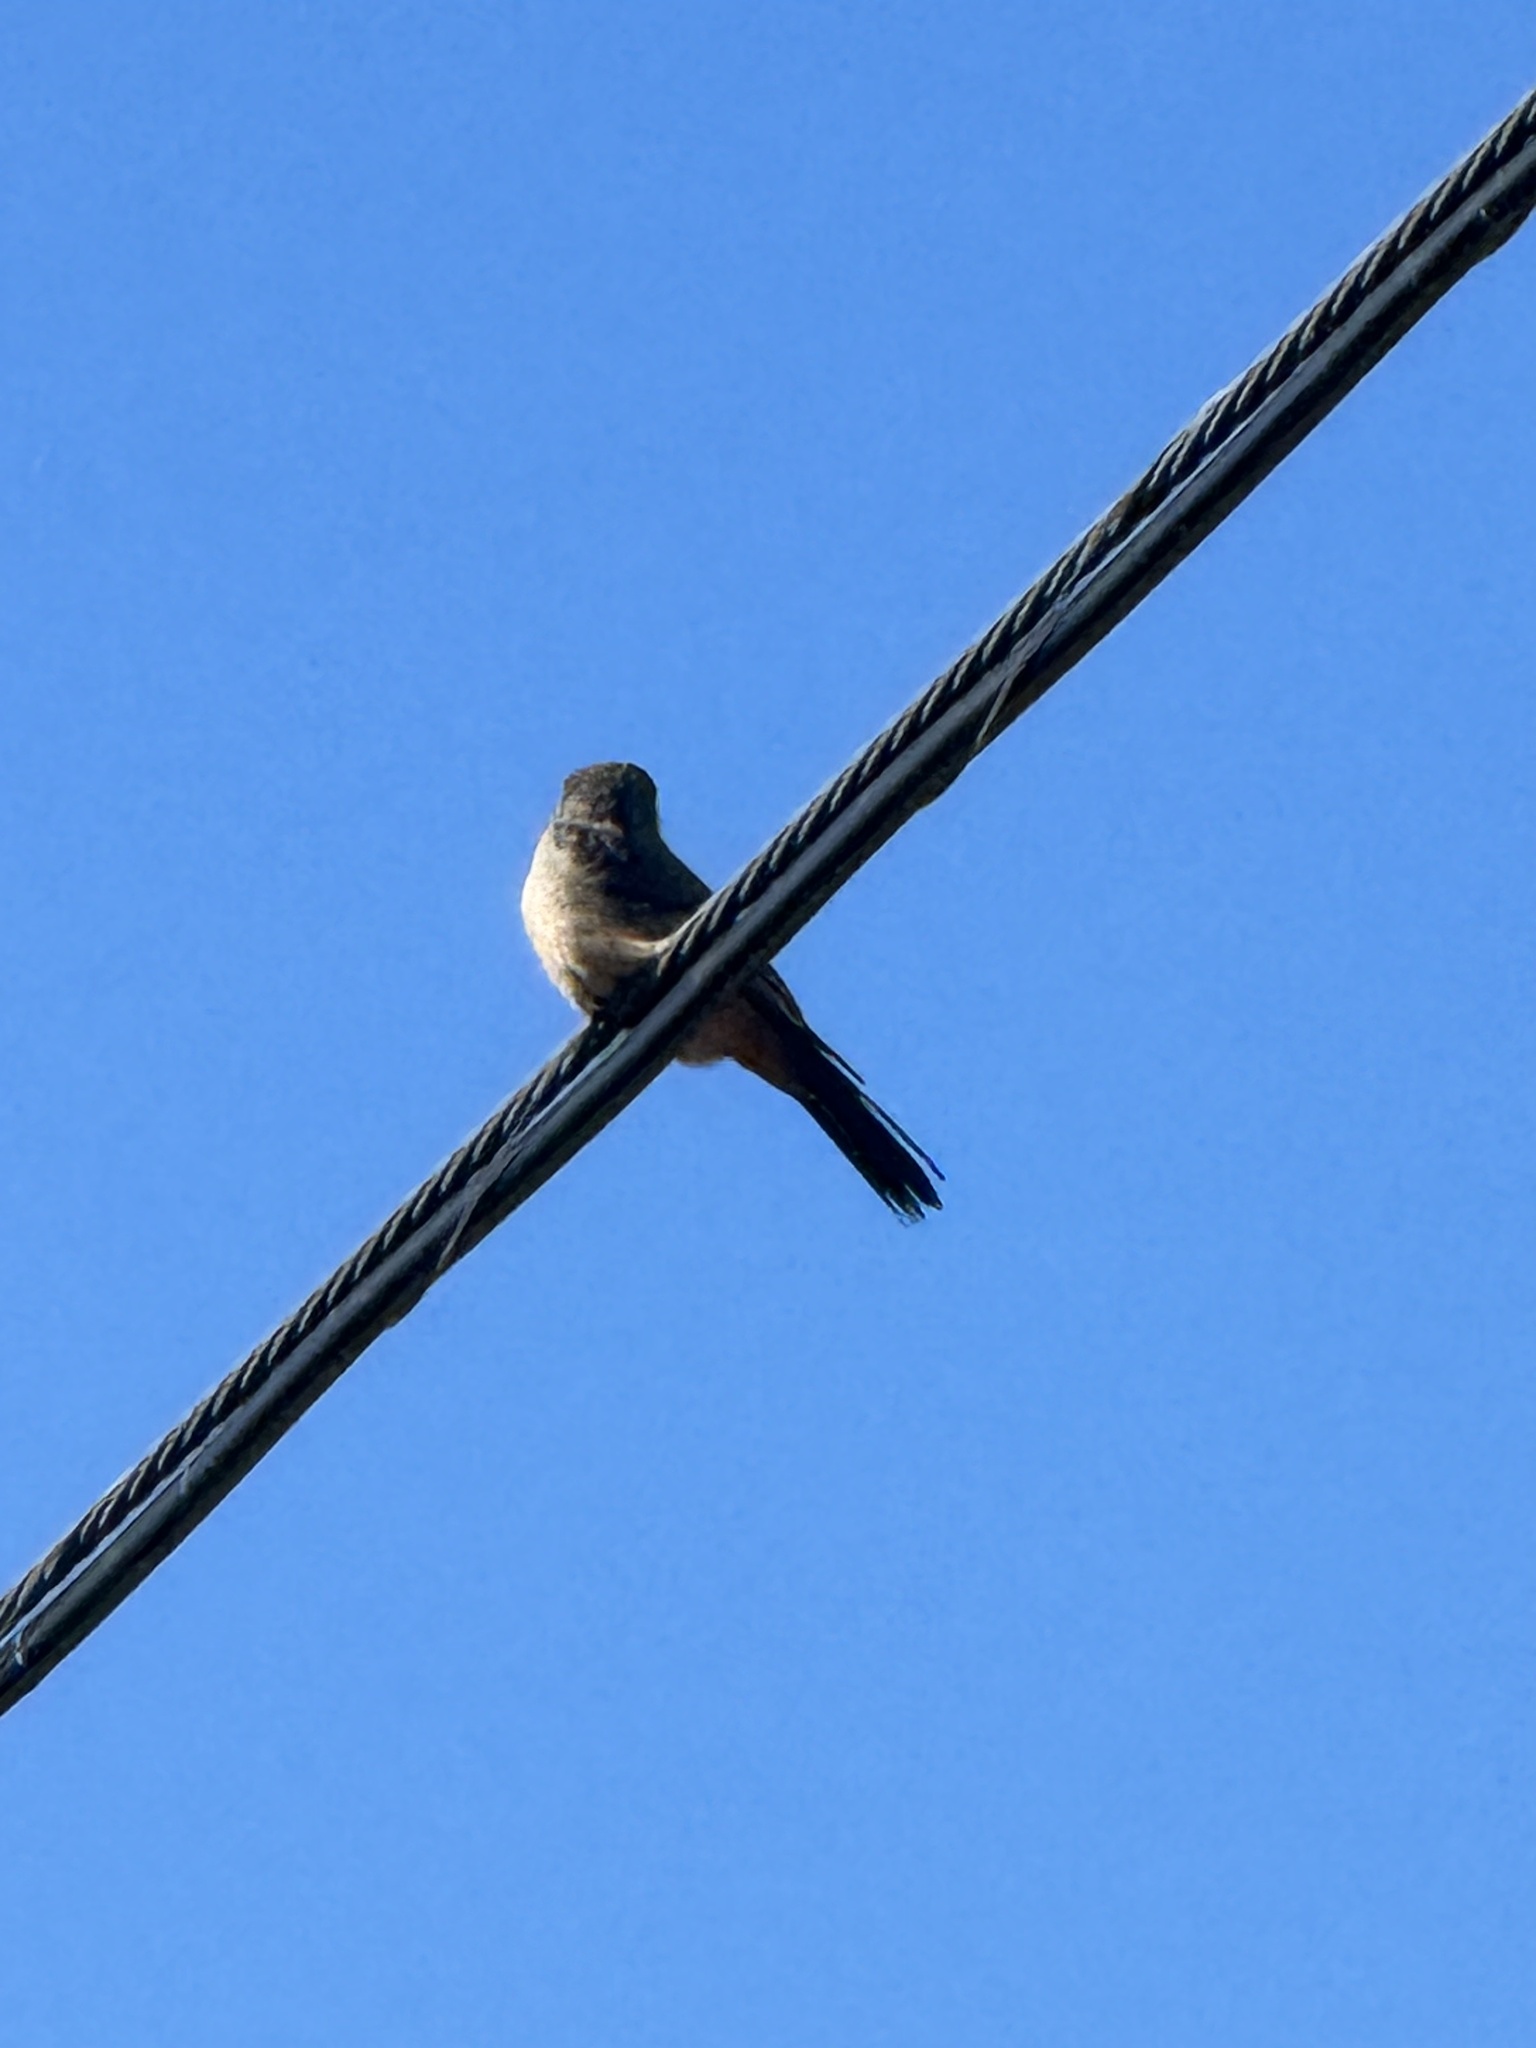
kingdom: Animalia
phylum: Chordata
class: Aves
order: Passeriformes
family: Tyrannidae
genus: Sayornis
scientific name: Sayornis saya
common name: Say's phoebe
